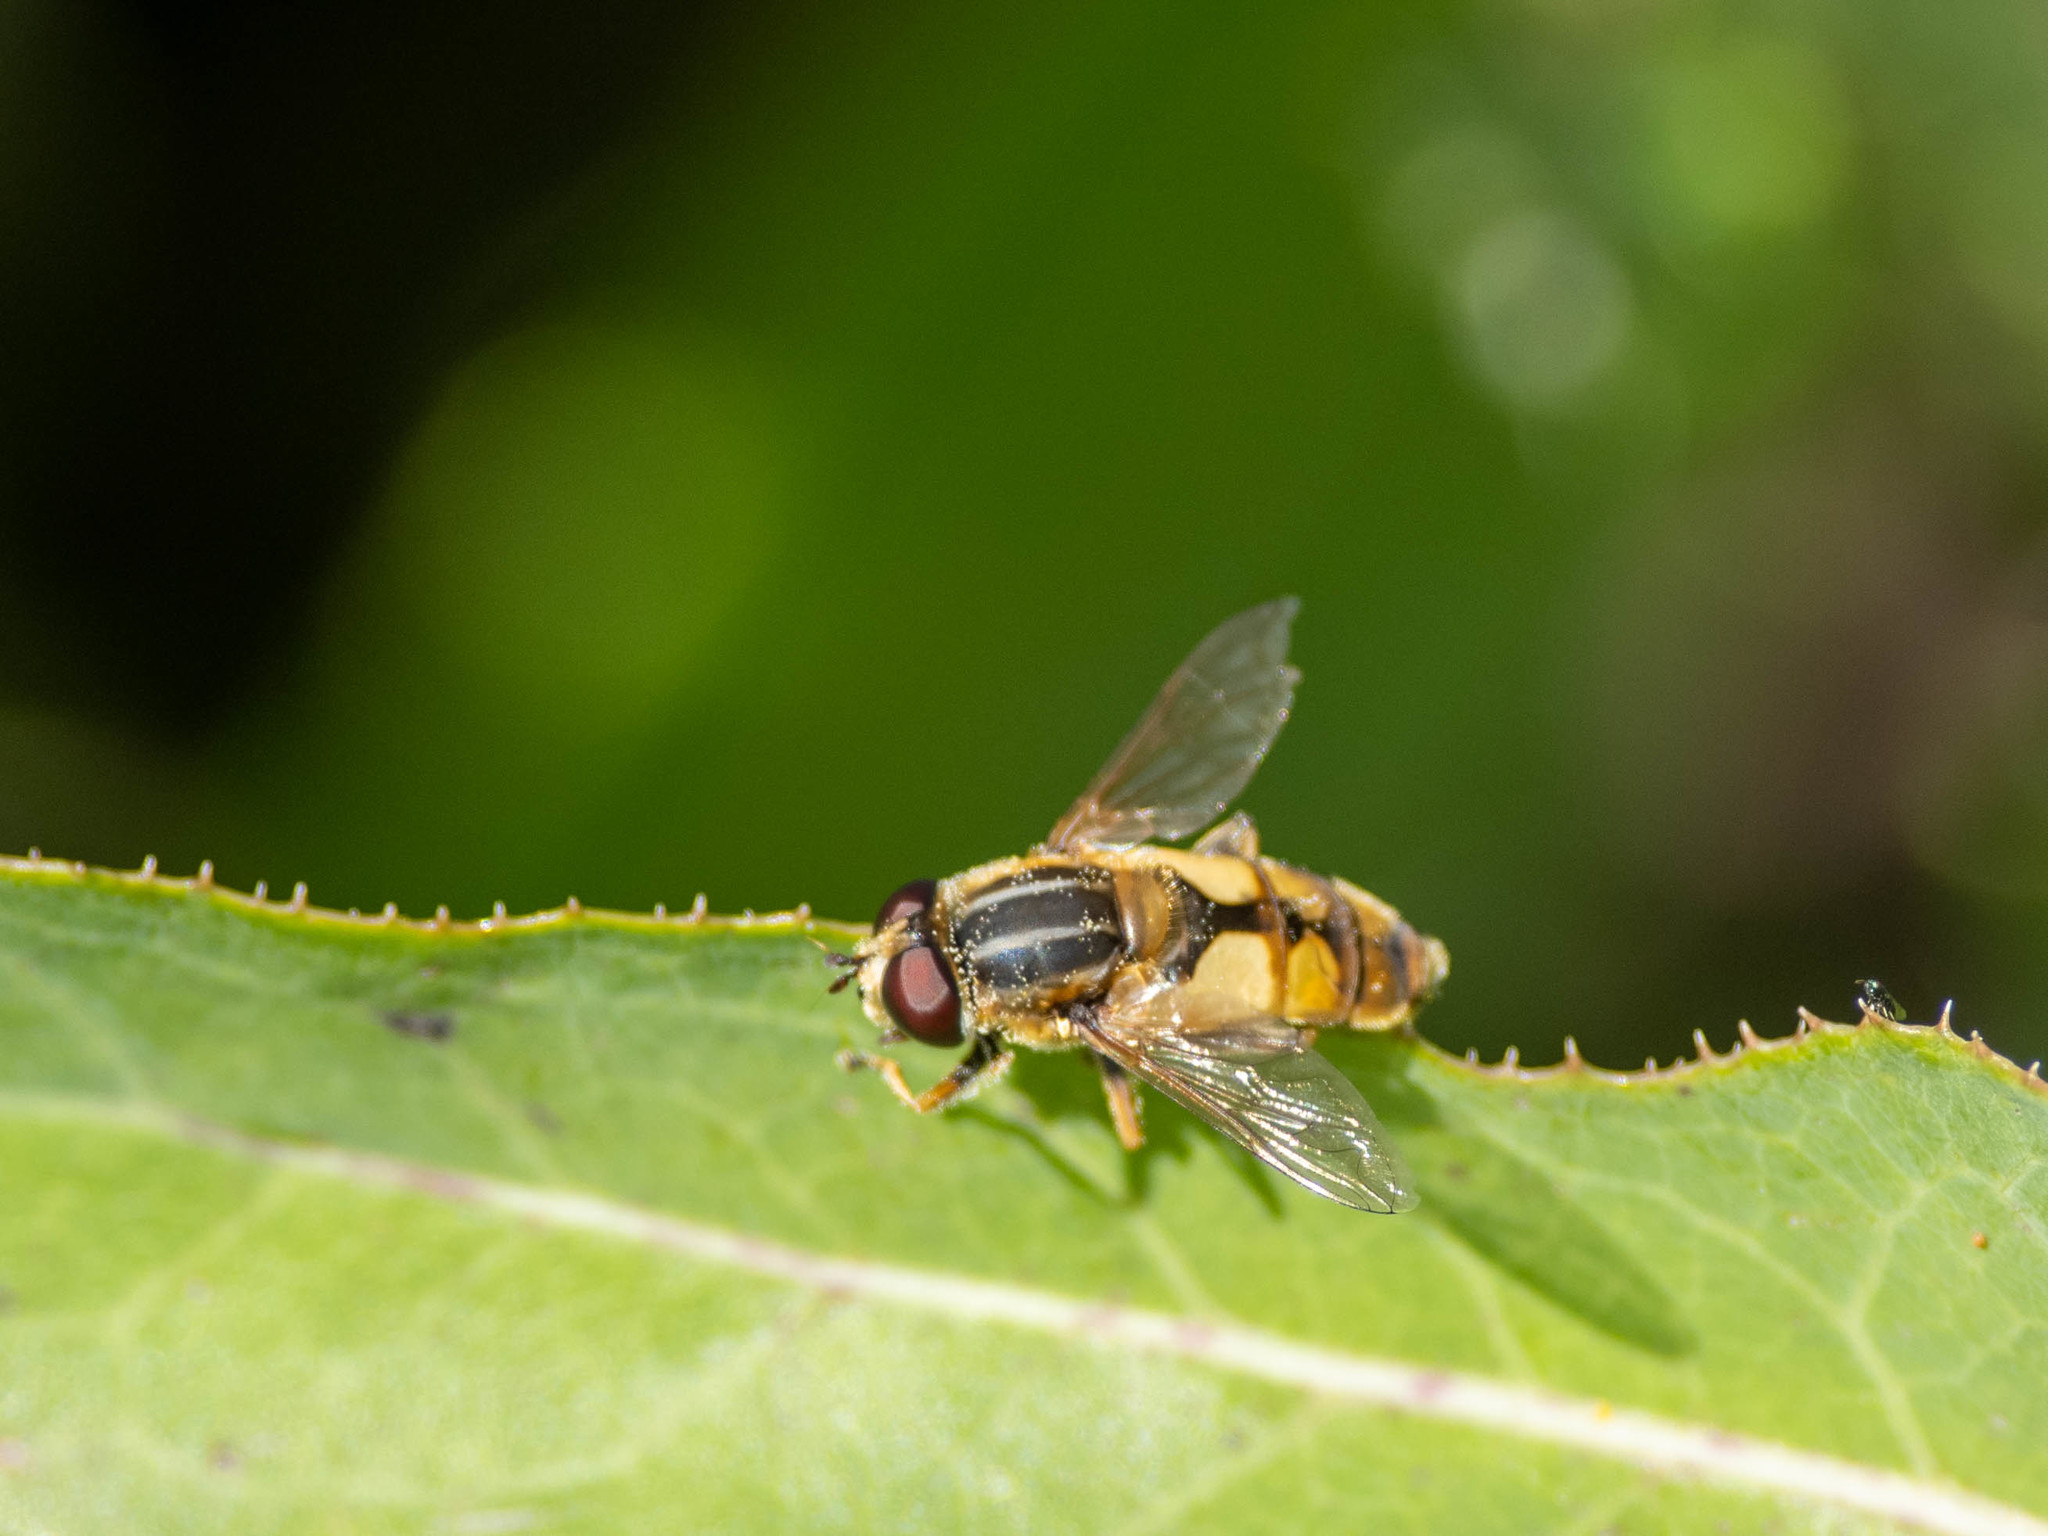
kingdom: Animalia
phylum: Arthropoda
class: Insecta
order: Diptera
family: Syrphidae
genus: Helophilus
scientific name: Helophilus hybridus
